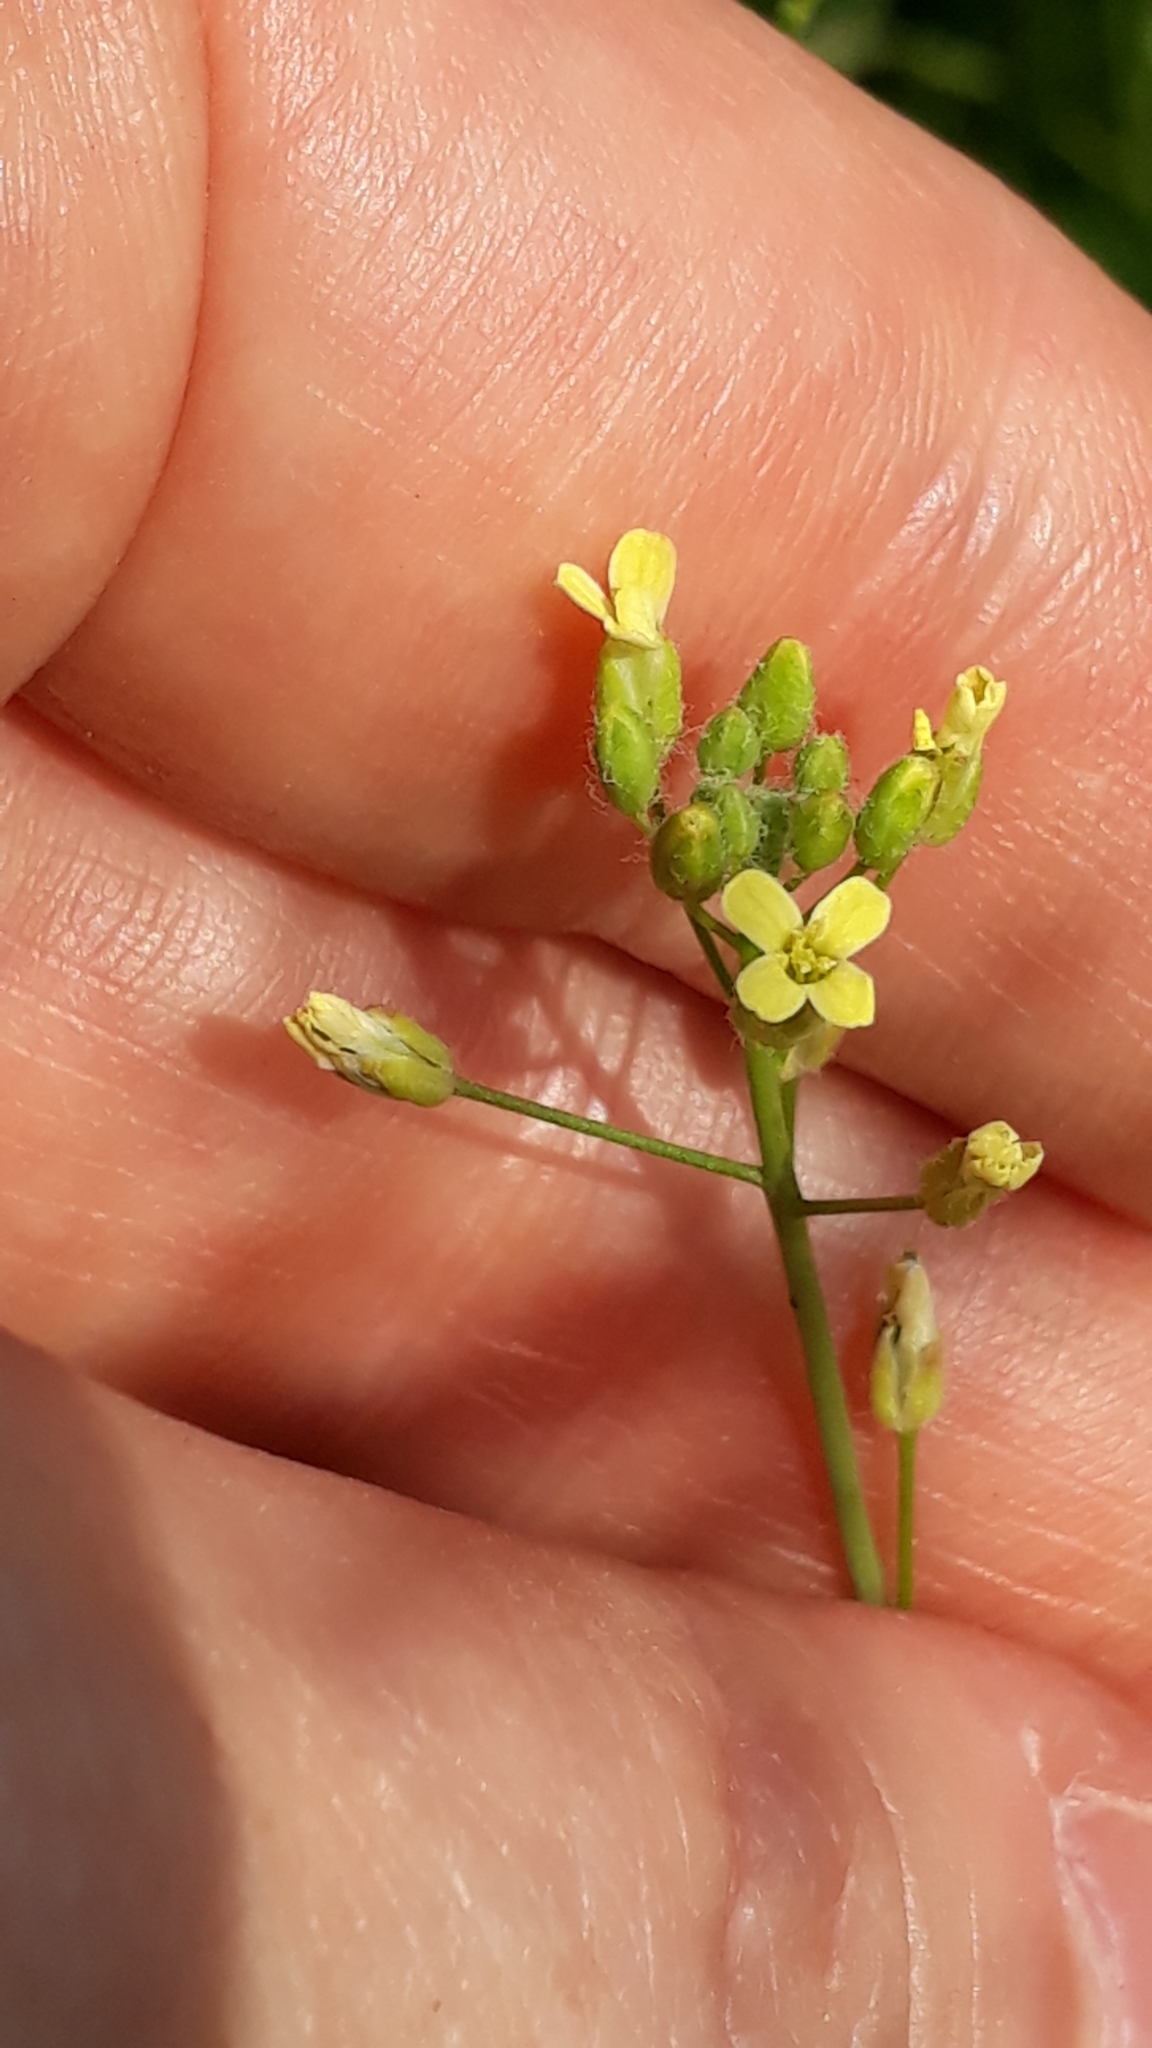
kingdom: Plantae
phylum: Tracheophyta
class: Magnoliopsida
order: Brassicales
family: Brassicaceae
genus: Camelina
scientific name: Camelina microcarpa
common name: Lesser gold-of-pleasure
